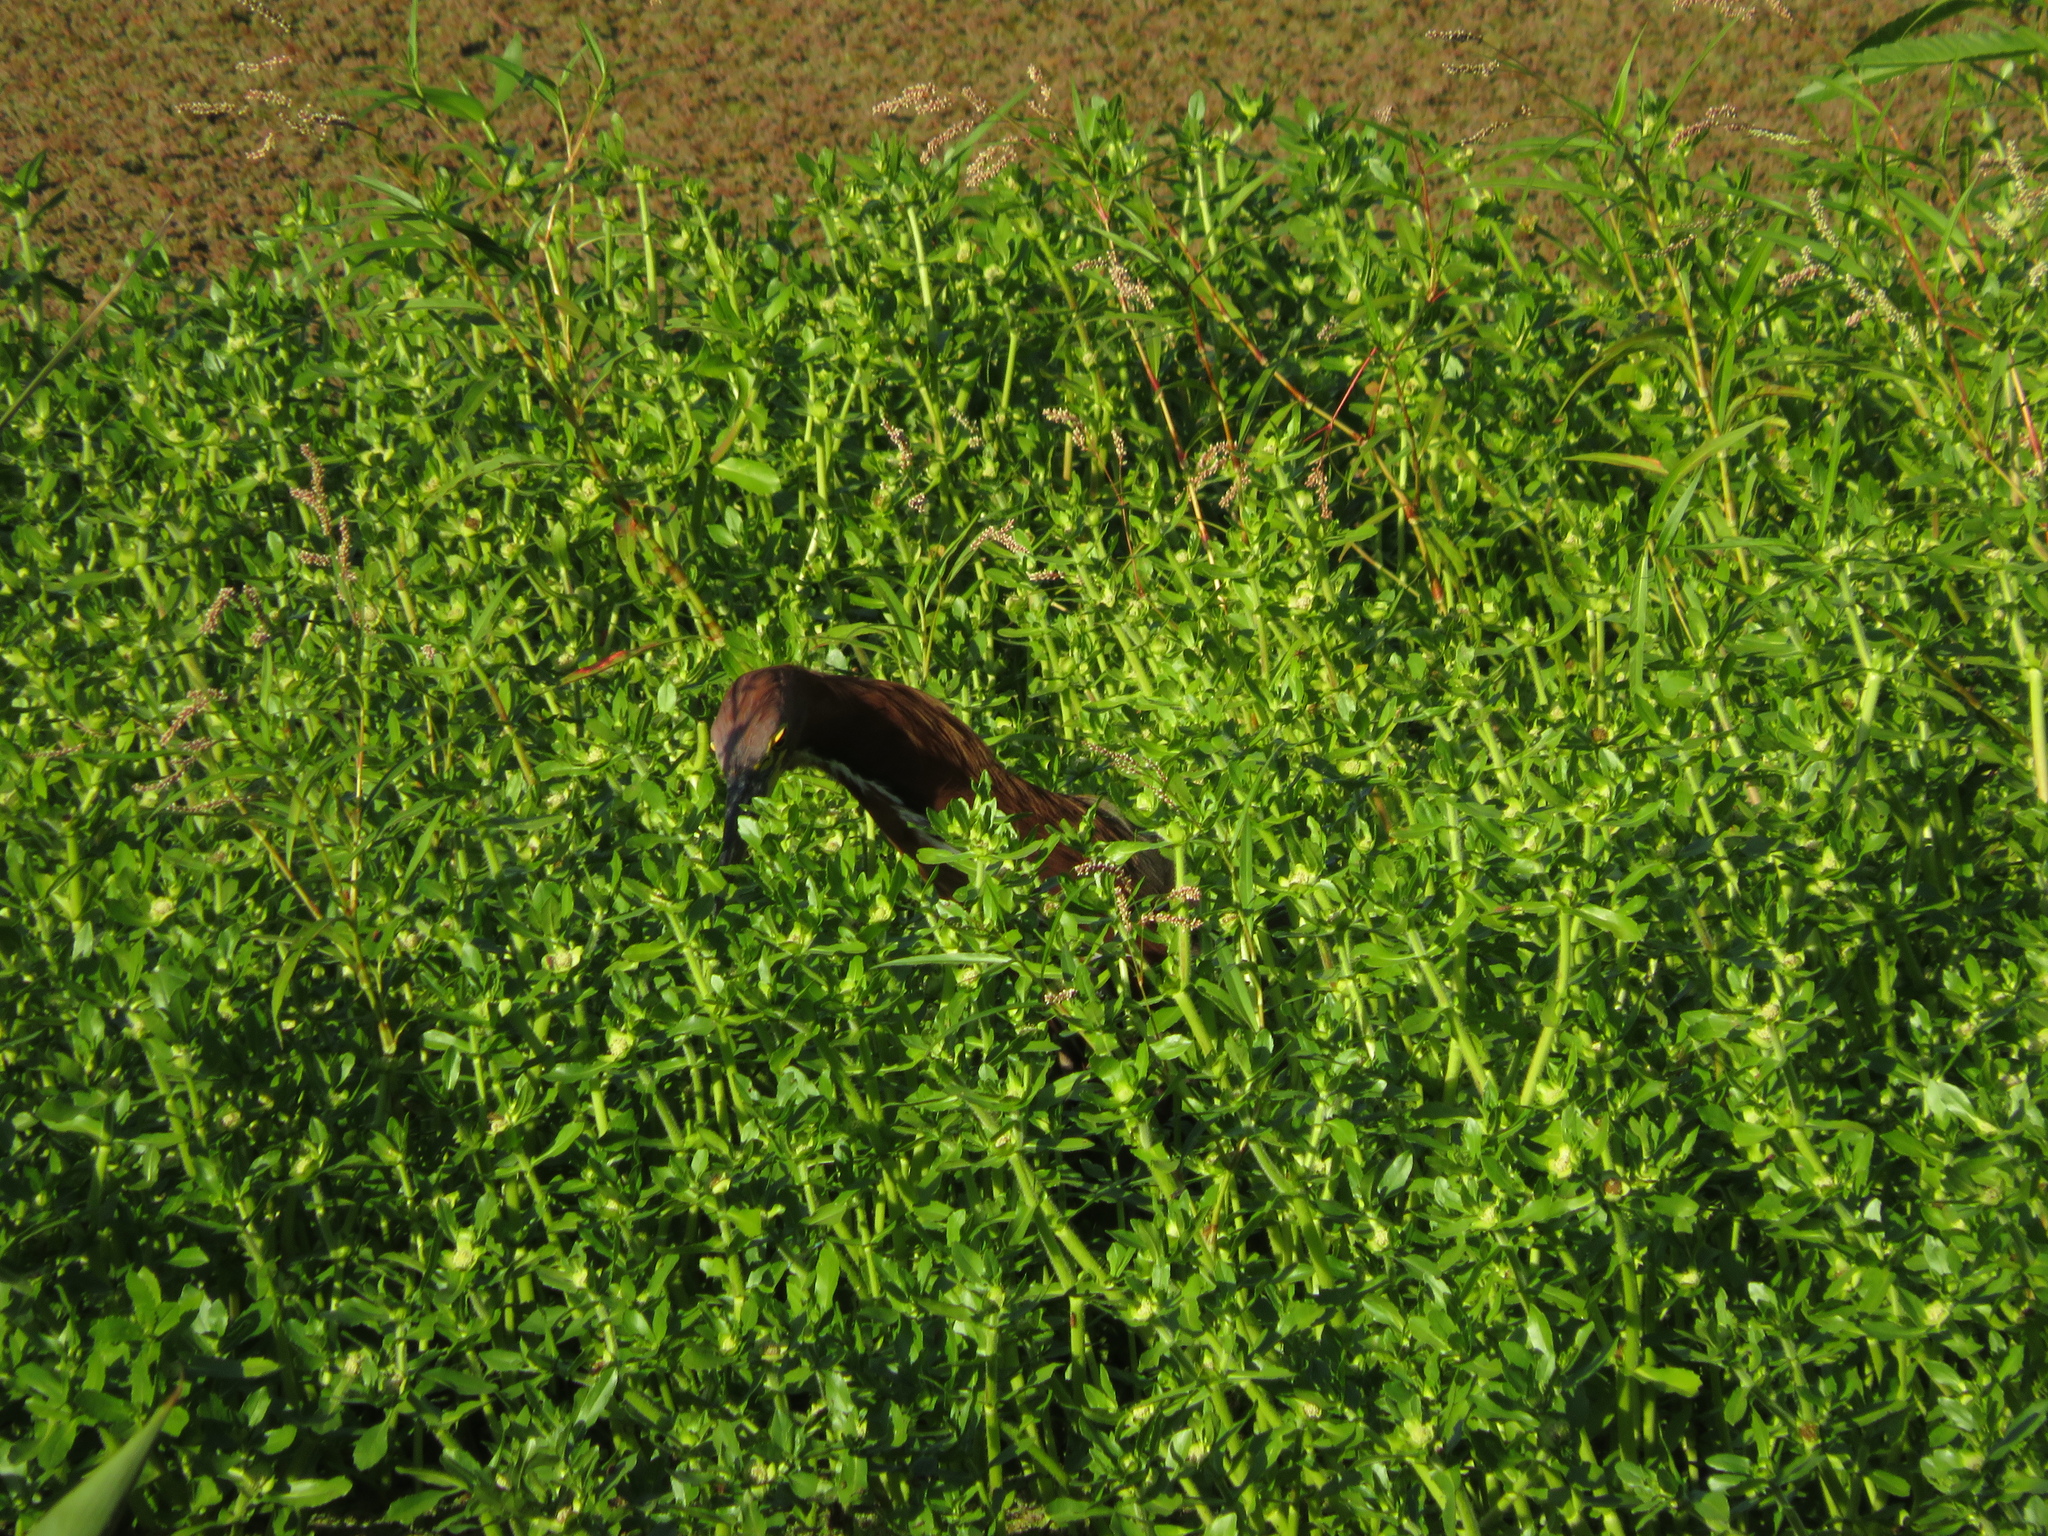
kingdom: Animalia
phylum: Chordata
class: Aves
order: Pelecaniformes
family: Ardeidae
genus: Tigrisoma
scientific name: Tigrisoma lineatum
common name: Rufescent tiger-heron
